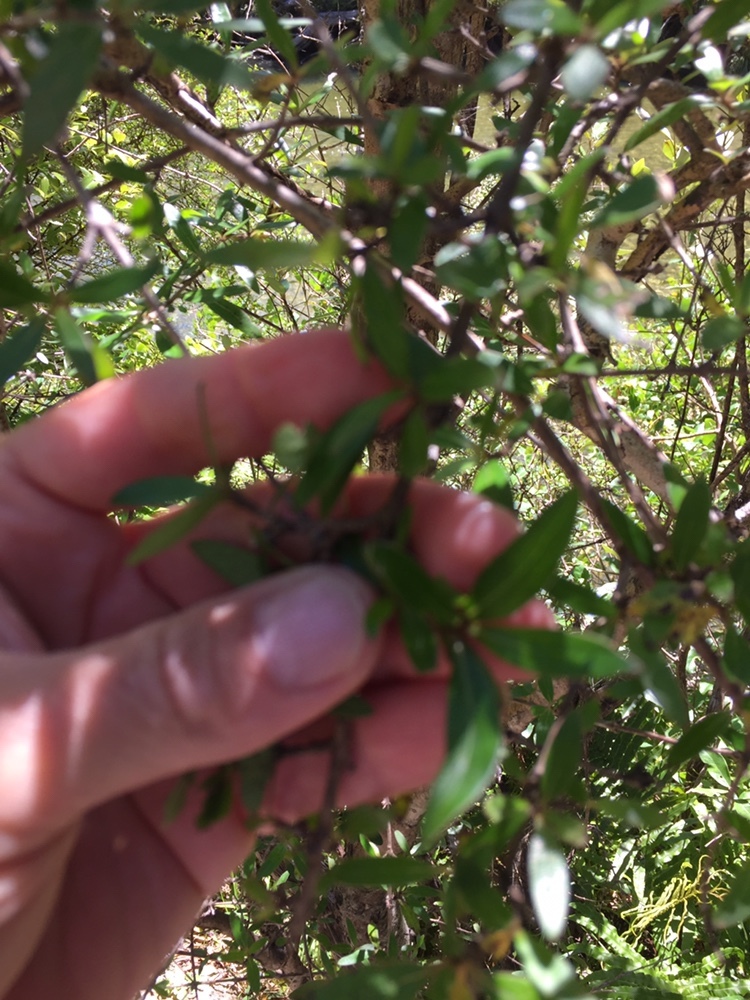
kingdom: Plantae
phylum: Tracheophyta
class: Magnoliopsida
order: Gentianales
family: Rubiaceae
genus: Coprosma
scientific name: Coprosma cunninghamii
